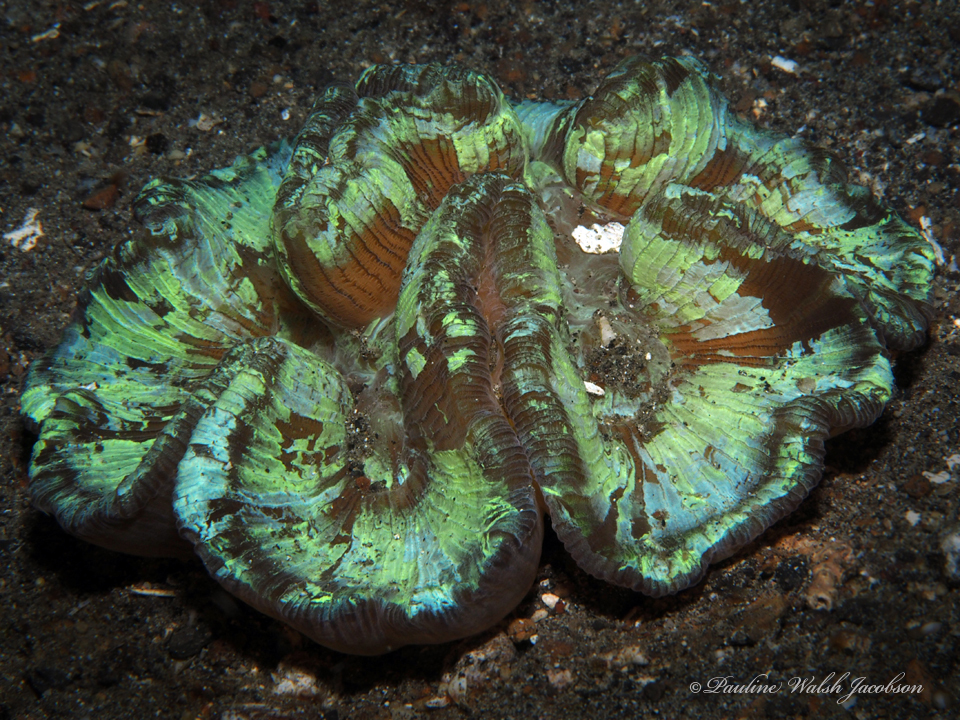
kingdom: Animalia
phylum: Cnidaria
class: Anthozoa
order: Scleractinia
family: Merulinidae
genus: Trachyphyllia
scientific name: Trachyphyllia geoffroyi
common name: Banana coral
